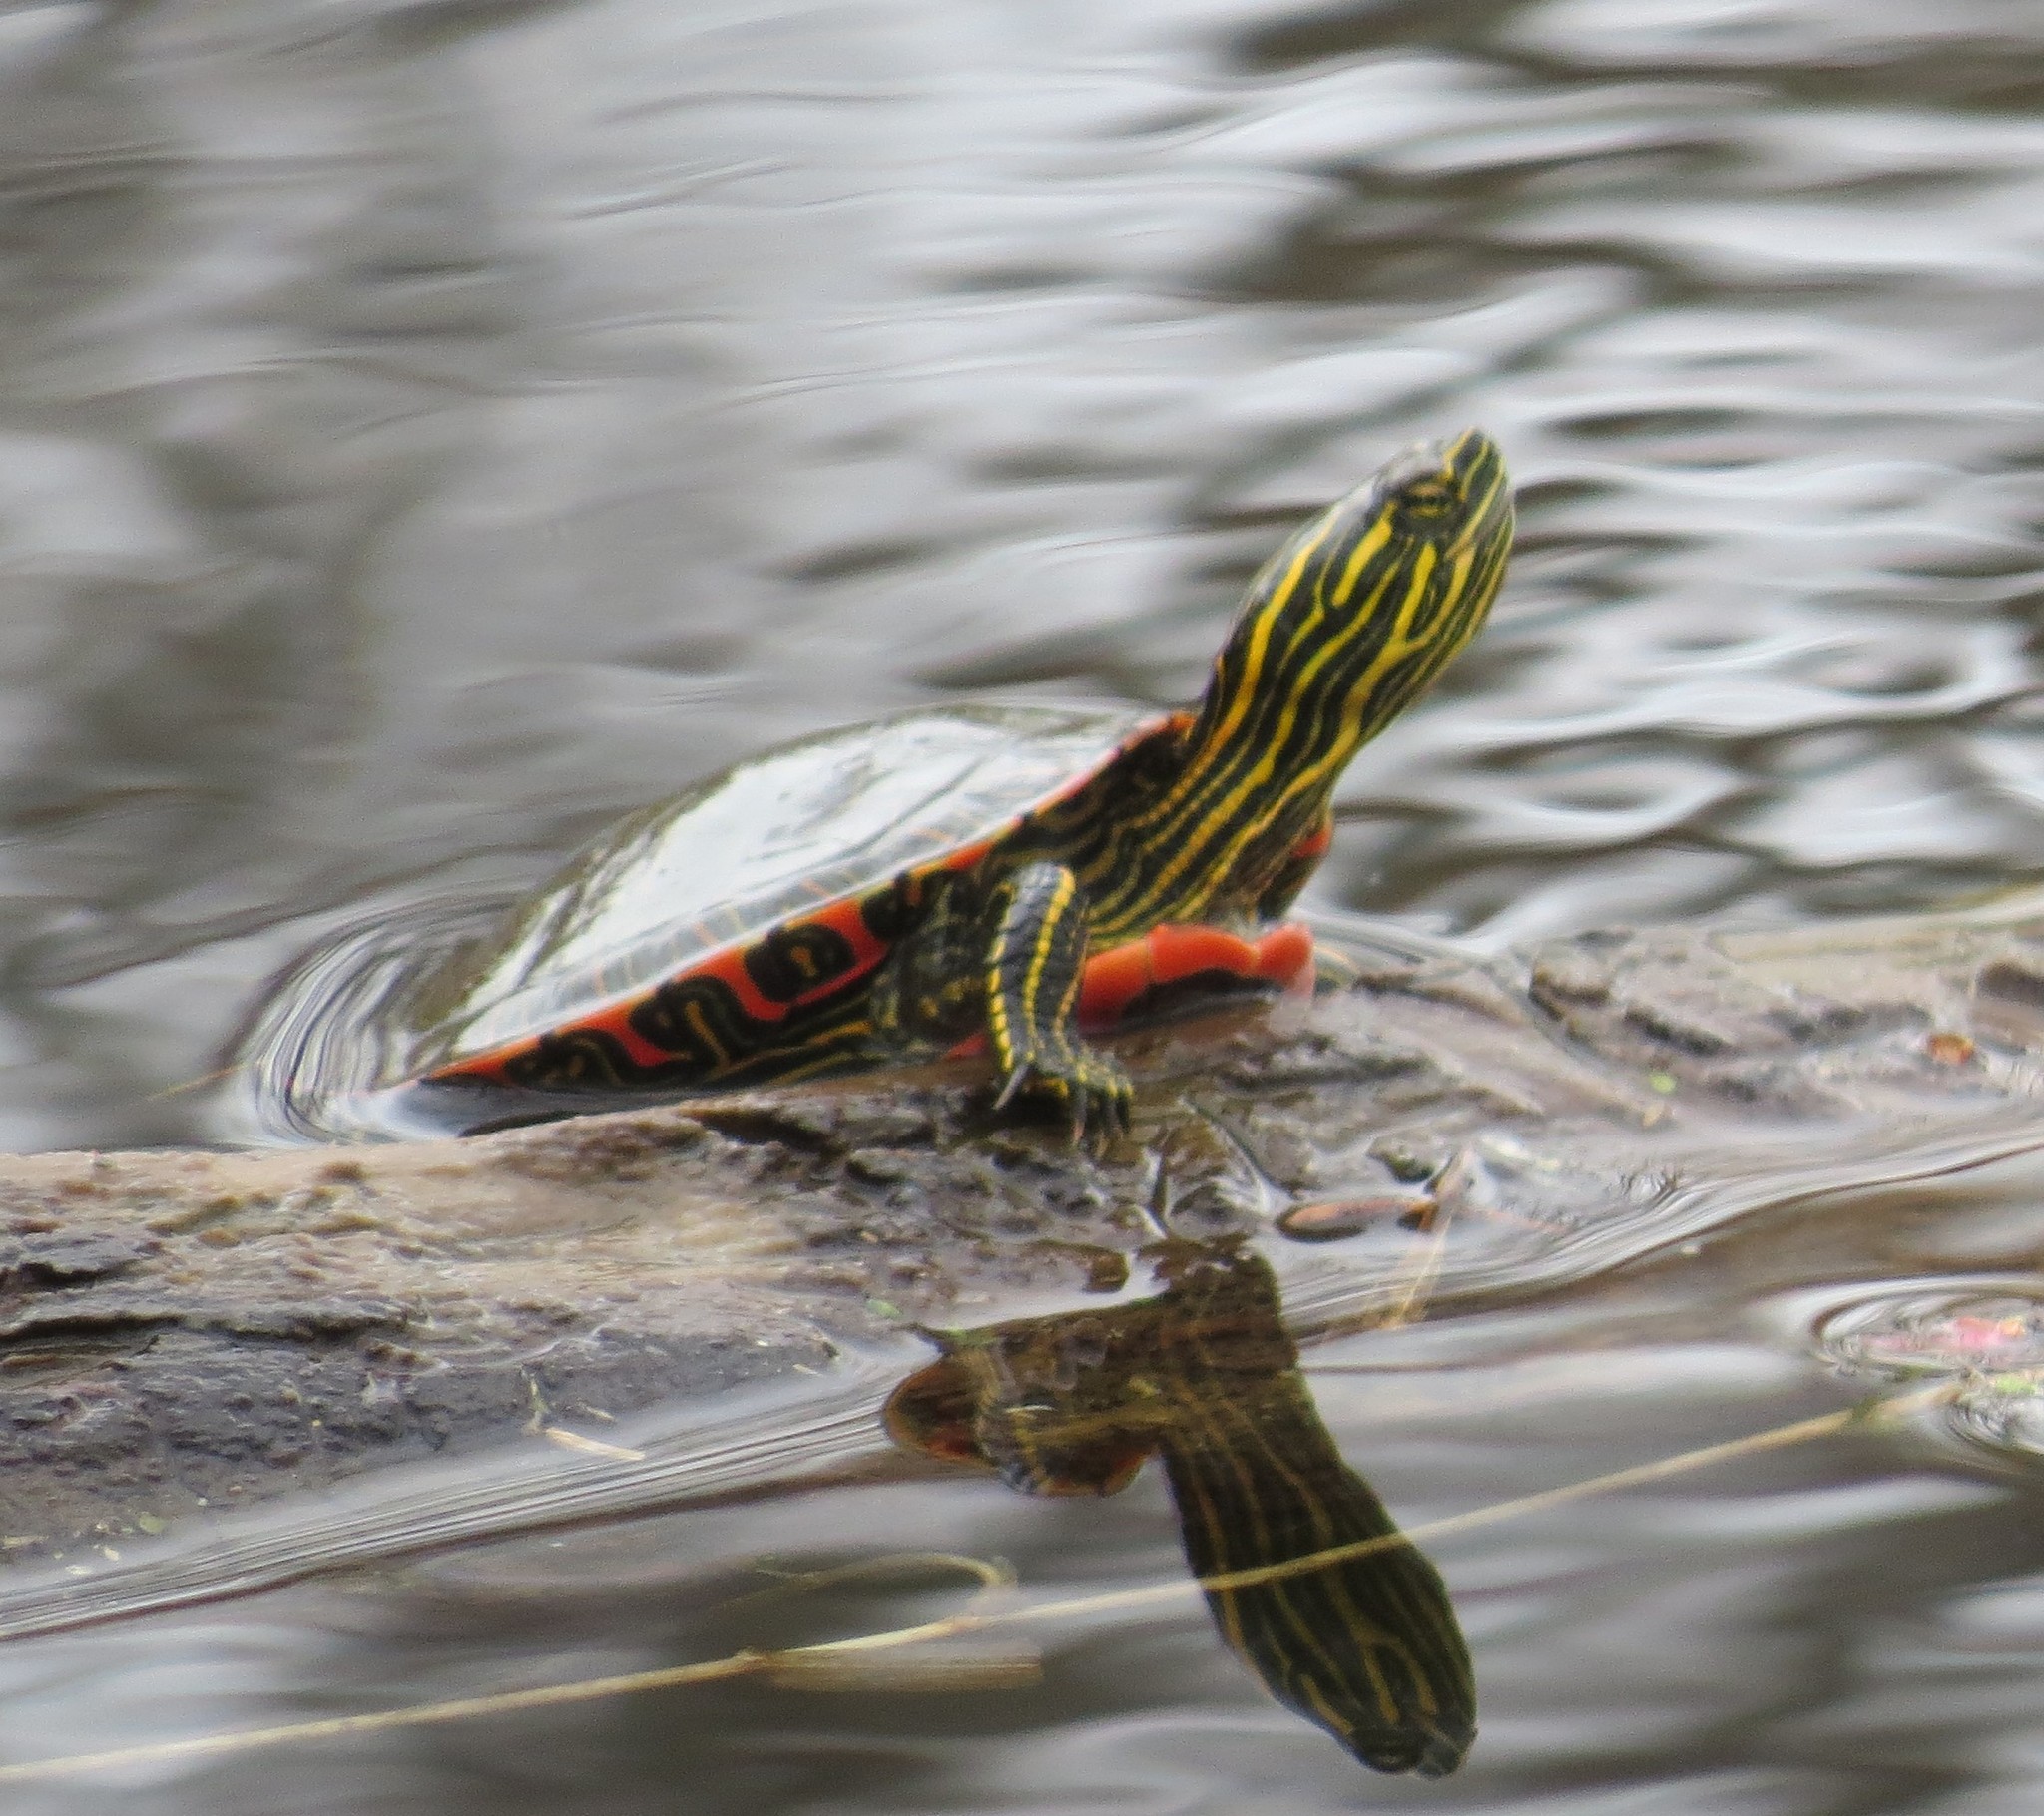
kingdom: Animalia
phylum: Chordata
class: Testudines
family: Emydidae
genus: Chrysemys
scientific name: Chrysemys picta
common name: Painted turtle
